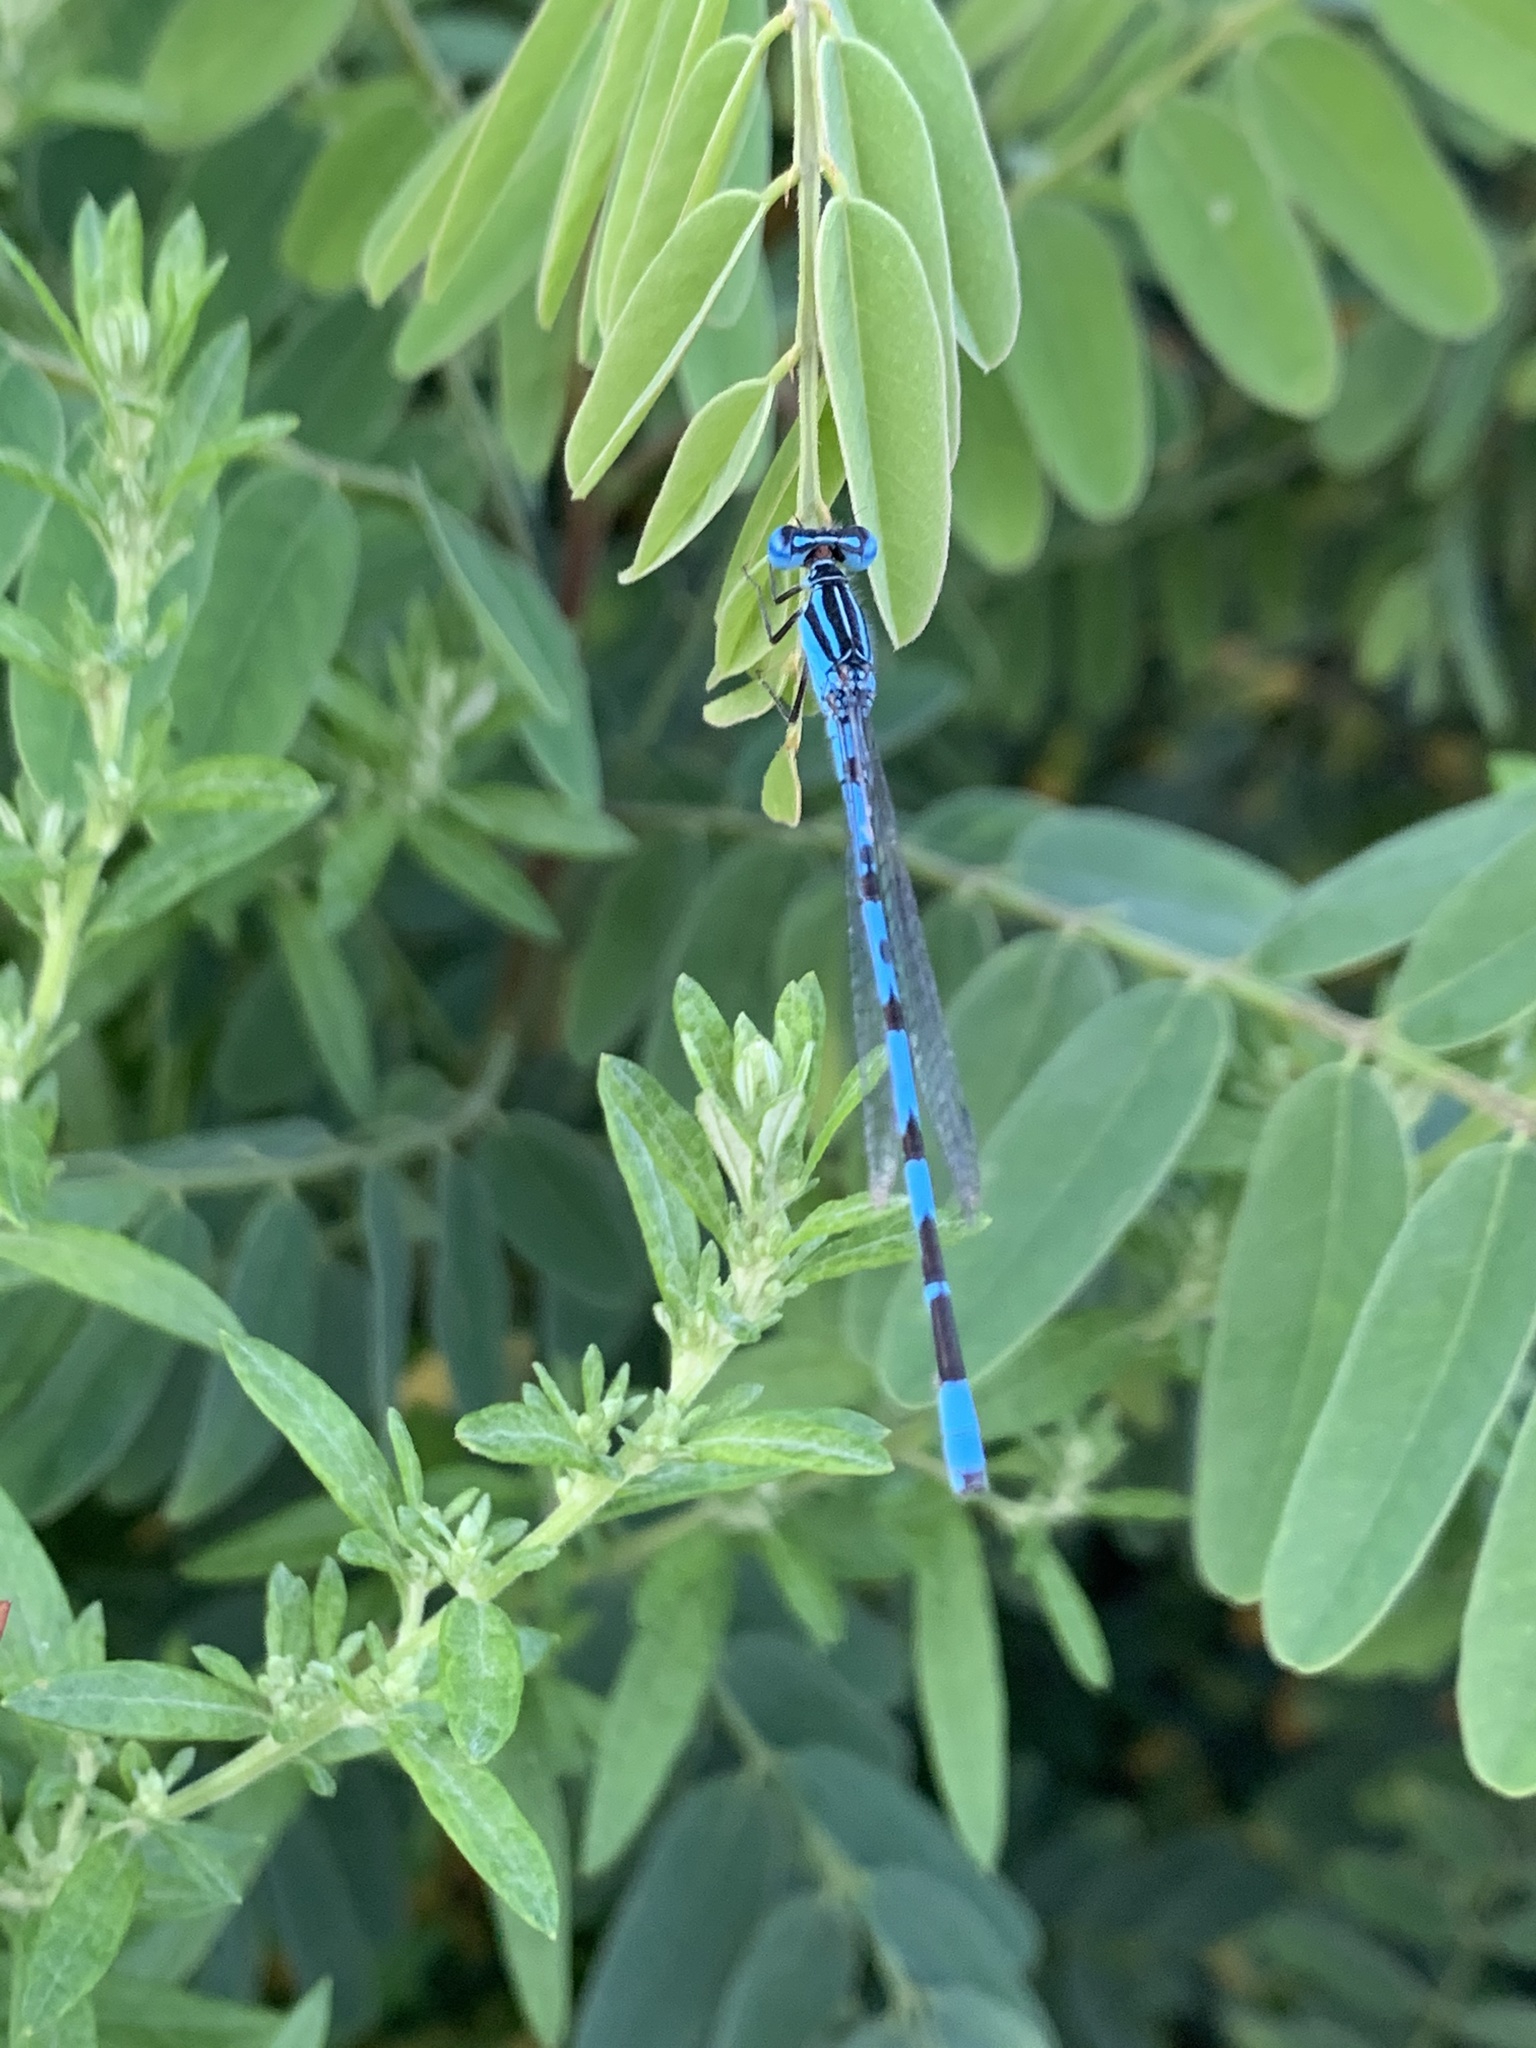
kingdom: Animalia
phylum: Arthropoda
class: Insecta
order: Odonata
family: Coenagrionidae
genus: Enallagma
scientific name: Enallagma durum
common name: Big bluet
